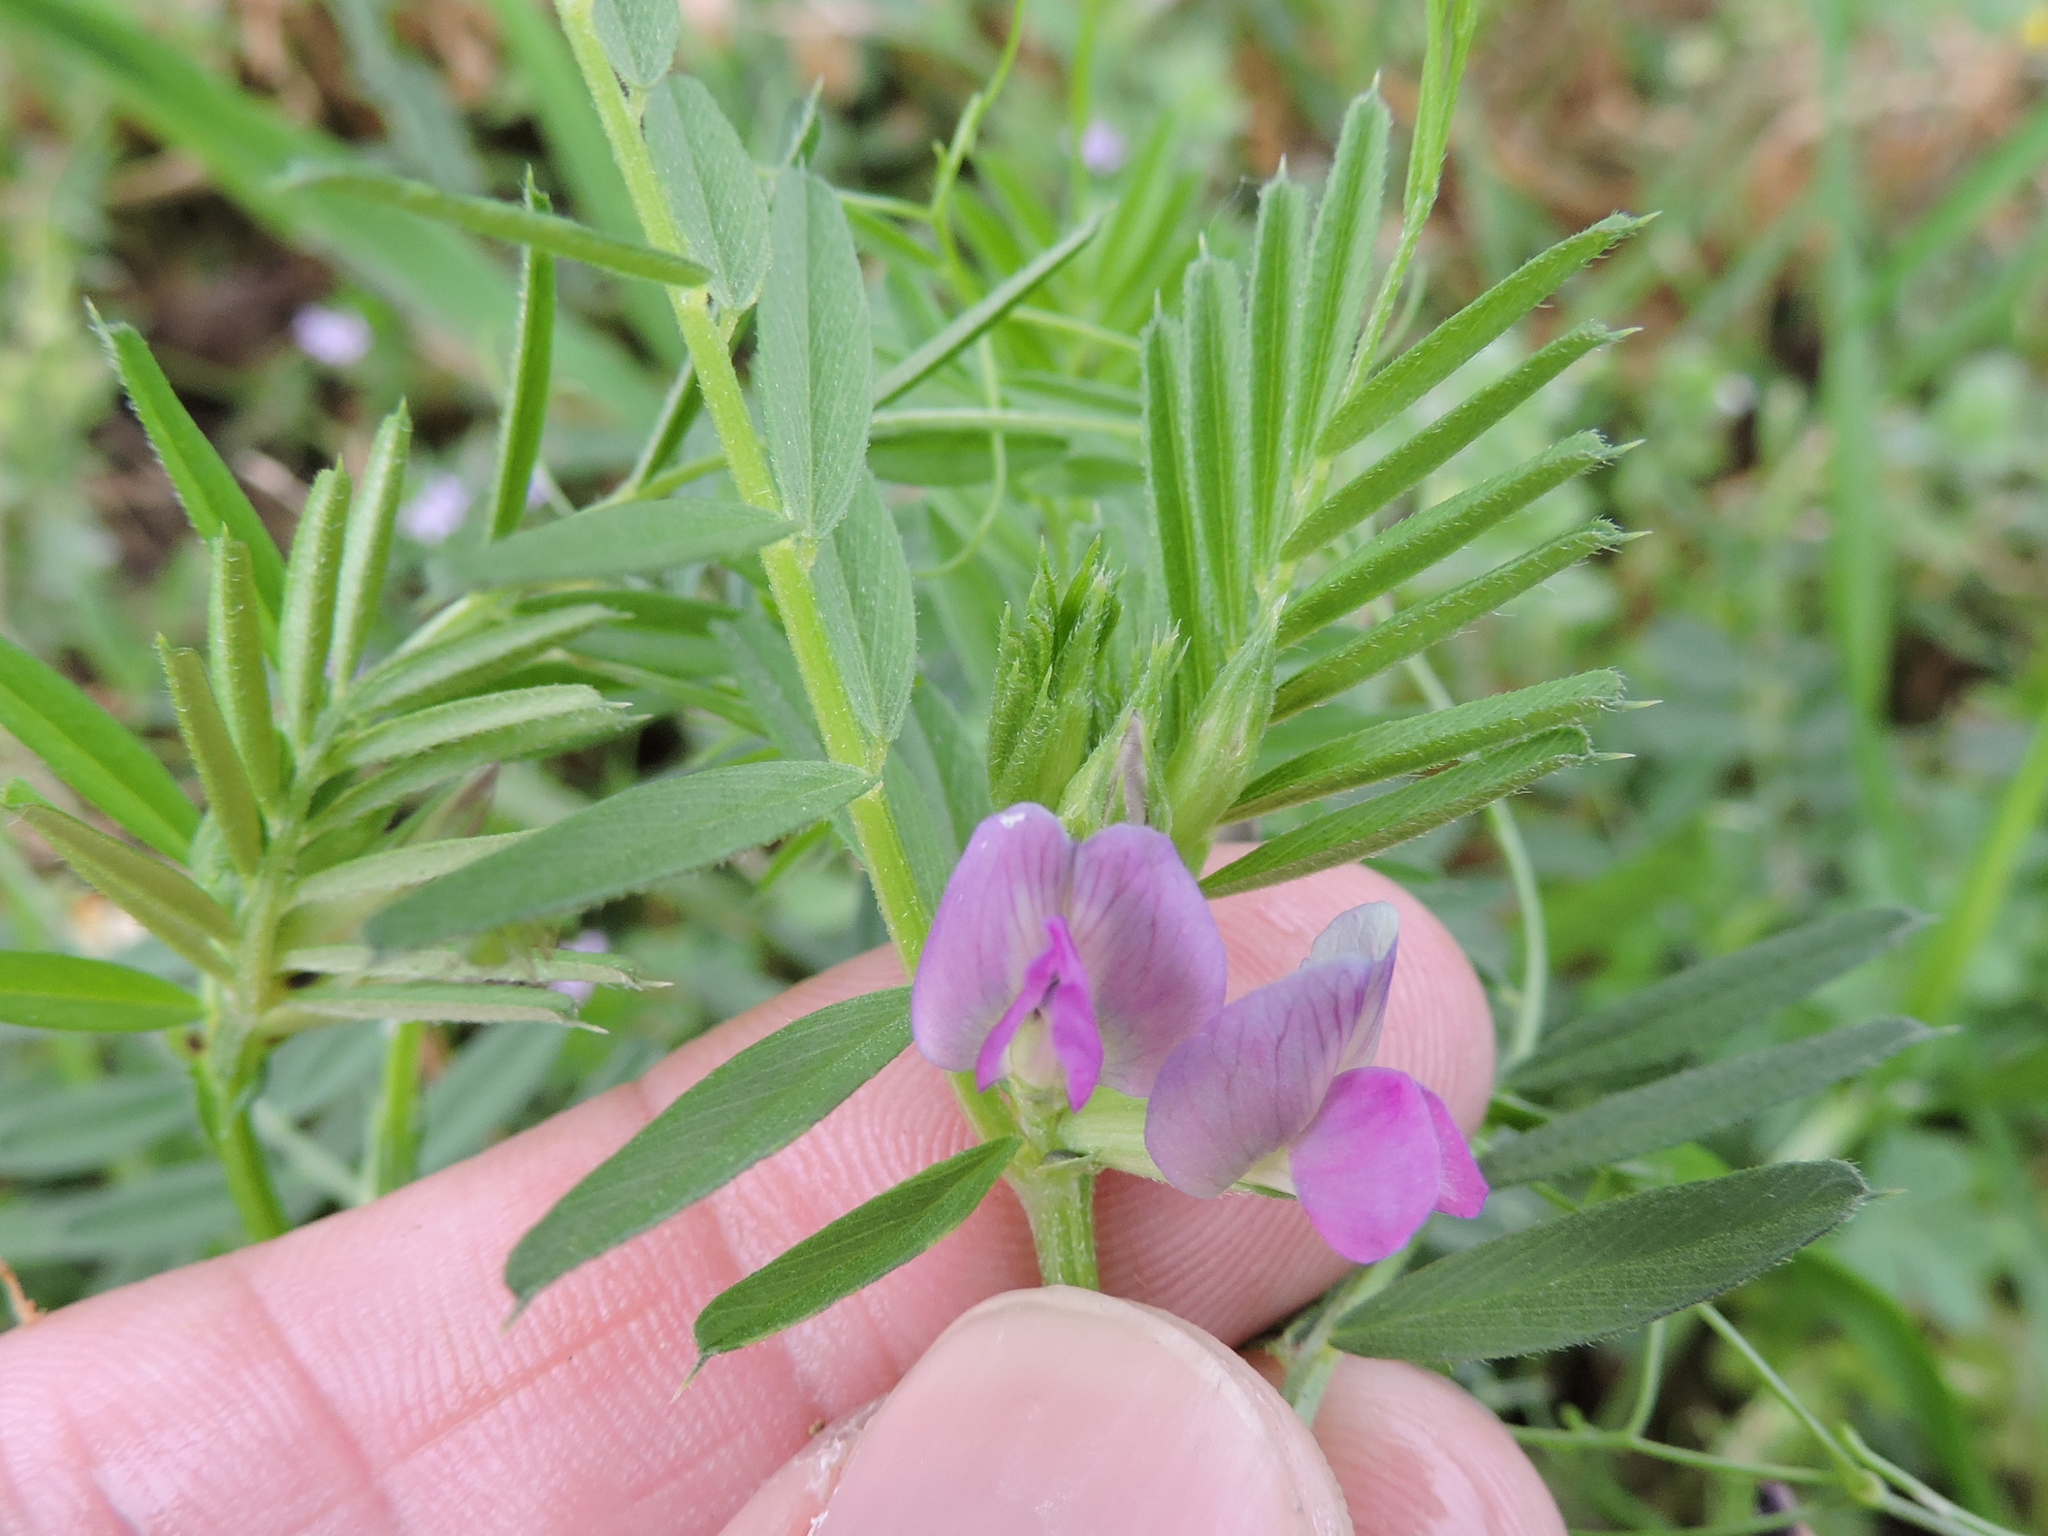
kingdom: Plantae
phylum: Tracheophyta
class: Magnoliopsida
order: Fabales
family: Fabaceae
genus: Vicia
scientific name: Vicia sativa
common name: Garden vetch
